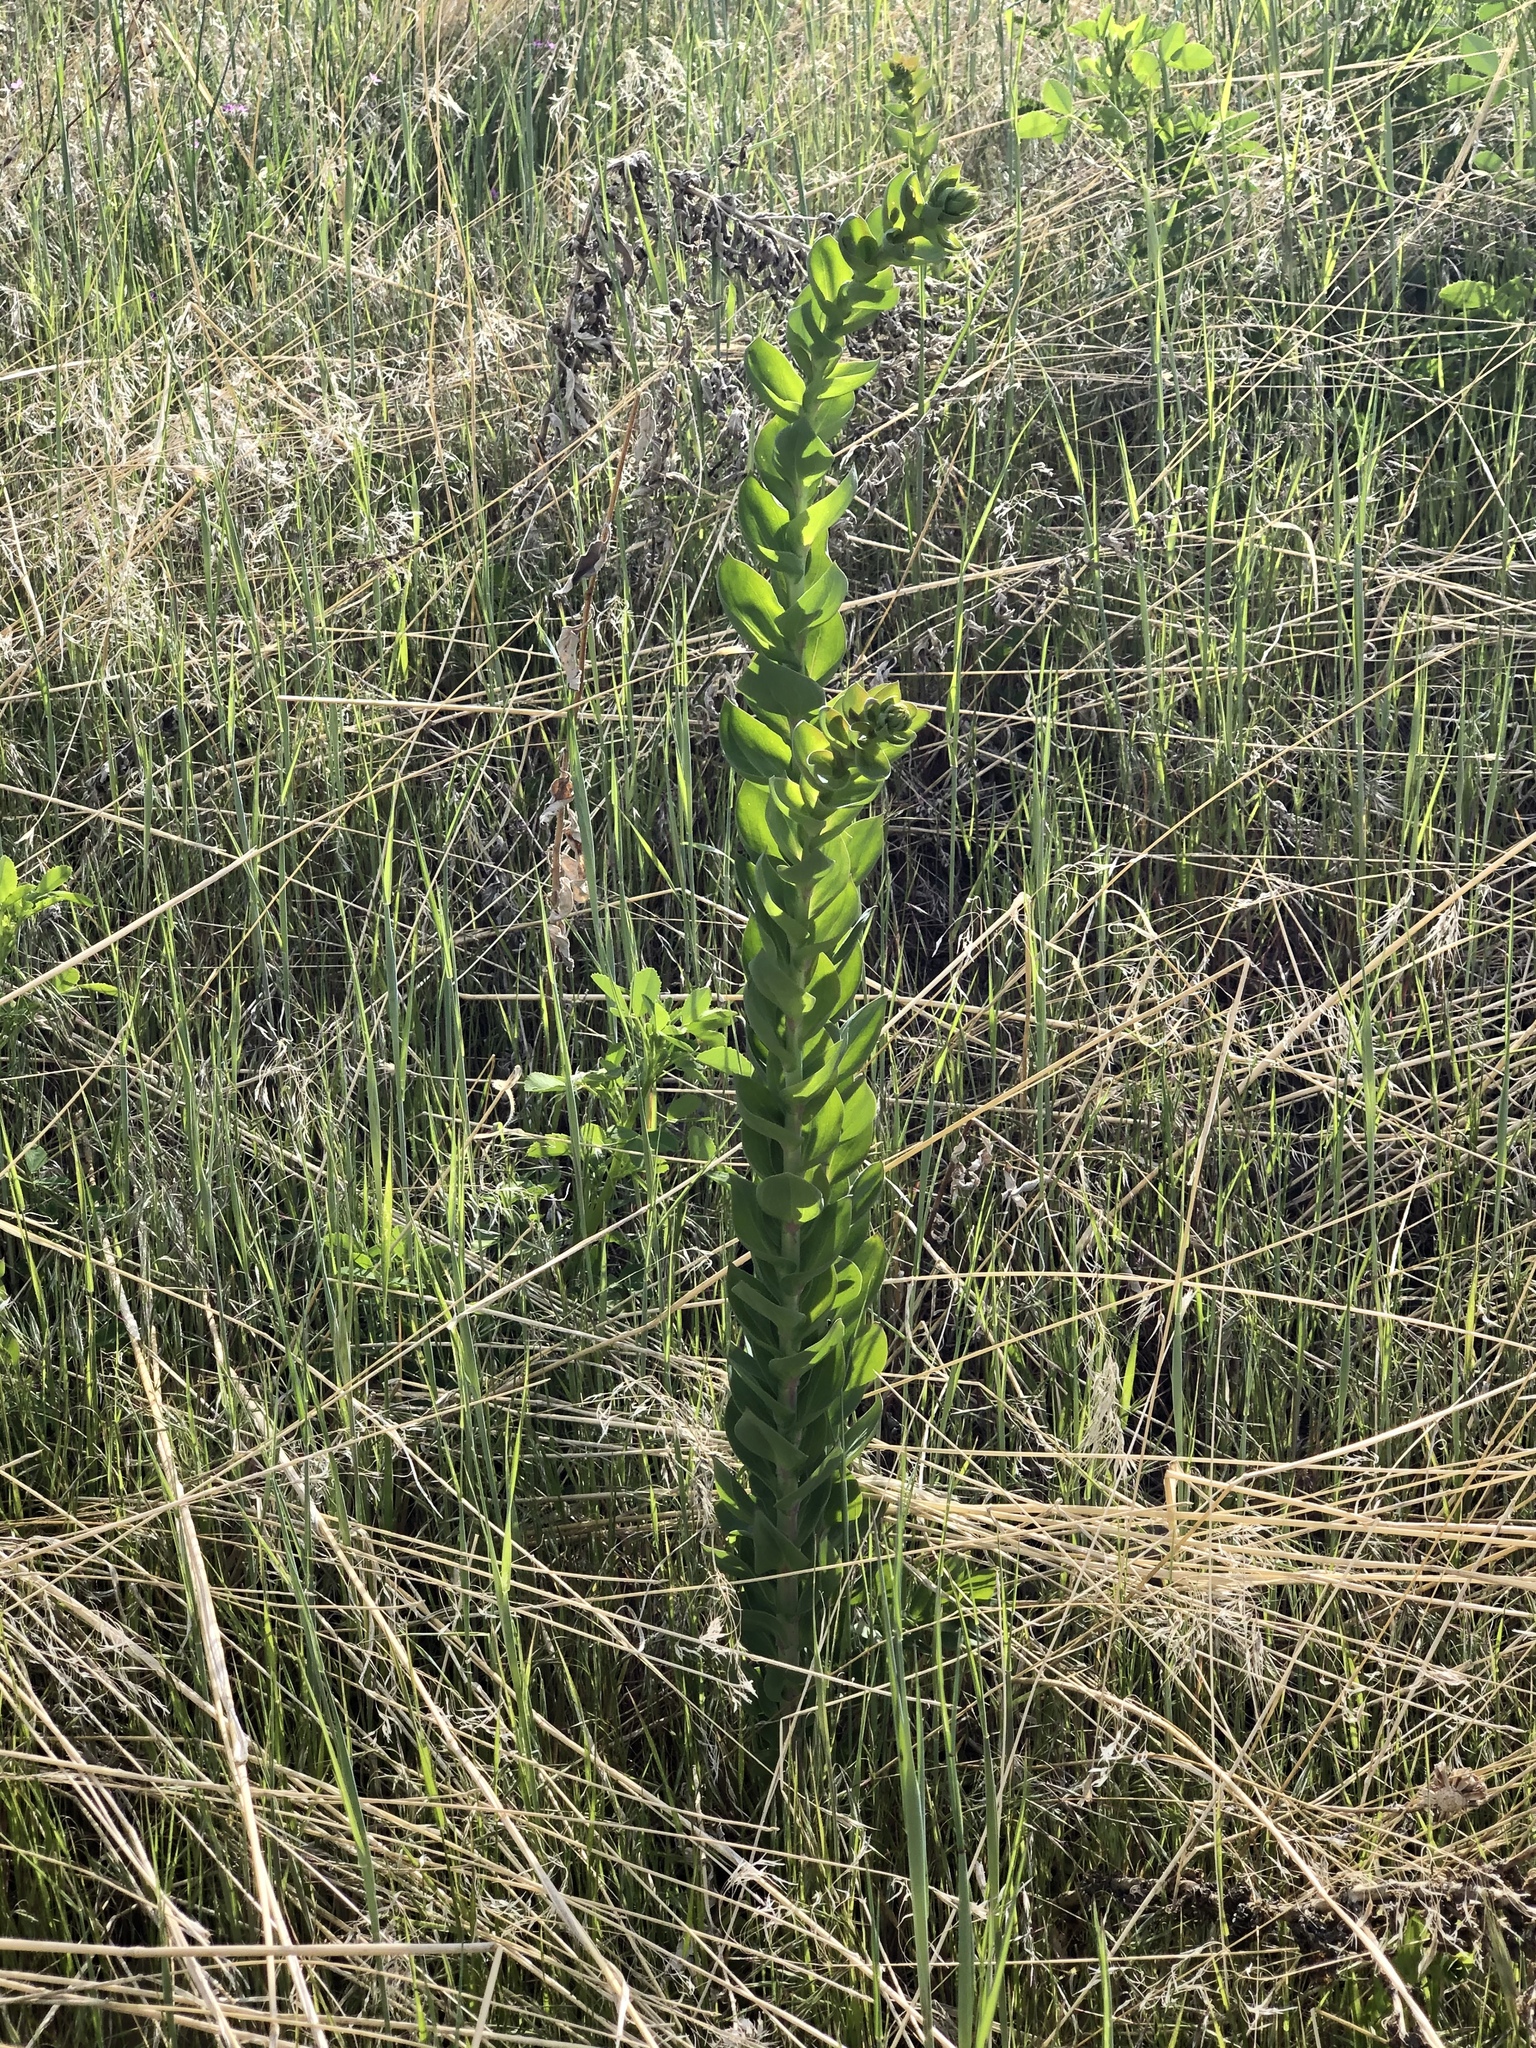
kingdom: Plantae
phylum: Tracheophyta
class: Magnoliopsida
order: Lamiales
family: Plantaginaceae
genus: Linaria
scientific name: Linaria dalmatica
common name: Dalmatian toadflax
